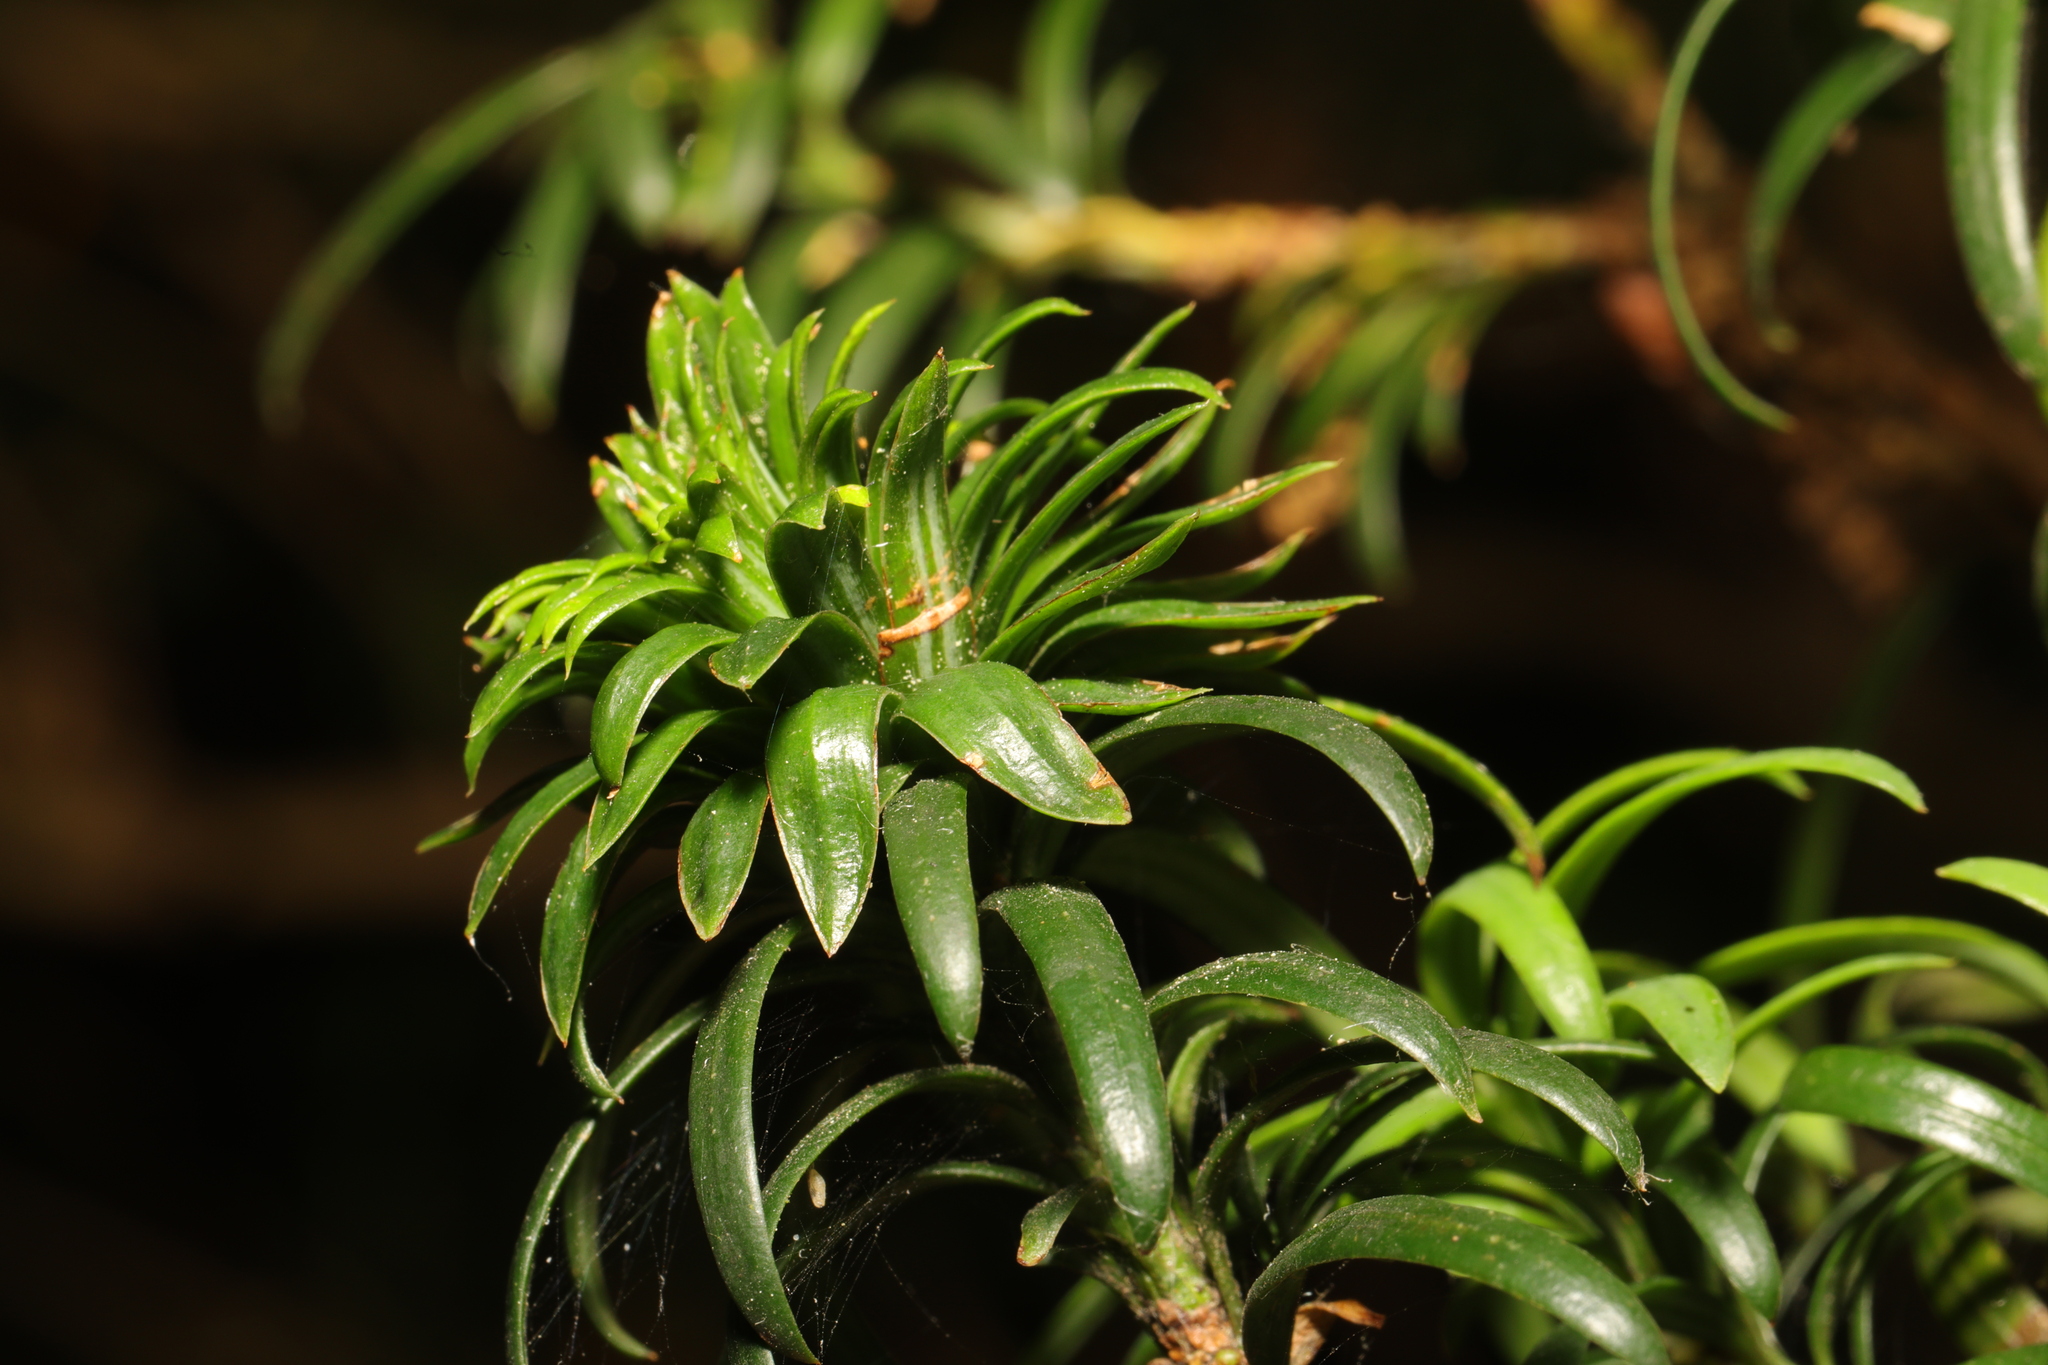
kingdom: Animalia
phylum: Arthropoda
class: Insecta
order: Diptera
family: Cecidomyiidae
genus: Taxomyia
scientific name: Taxomyia taxi
